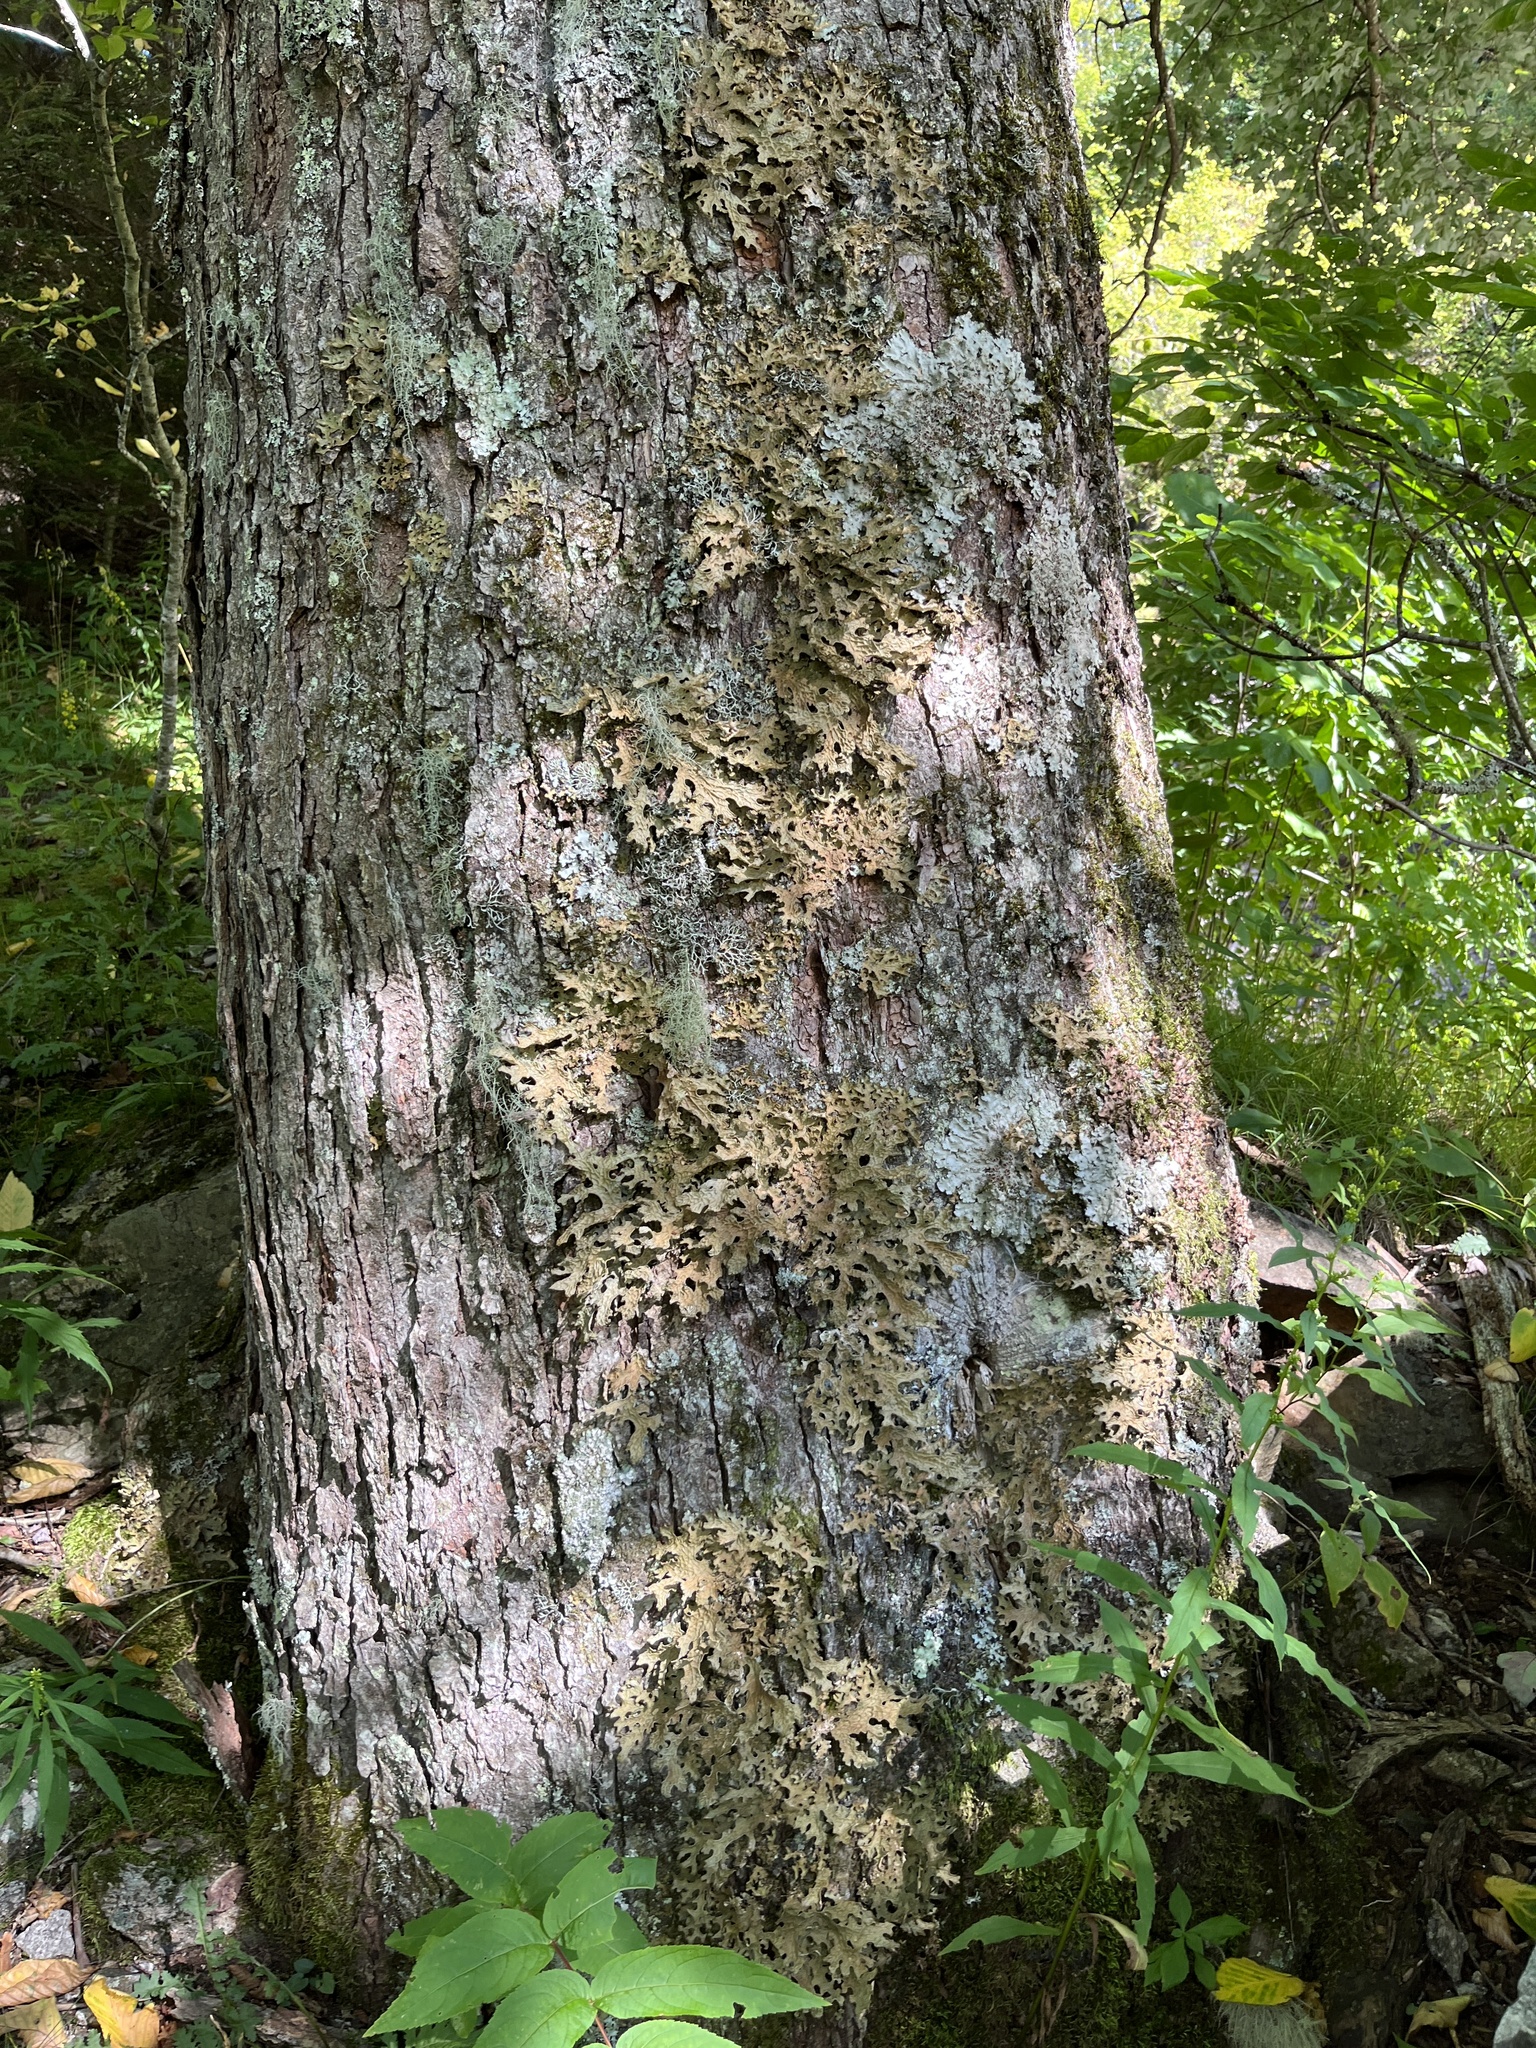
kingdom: Fungi
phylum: Ascomycota
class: Lecanoromycetes
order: Peltigerales
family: Lobariaceae
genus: Lobaria
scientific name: Lobaria pulmonaria
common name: Lungwort
